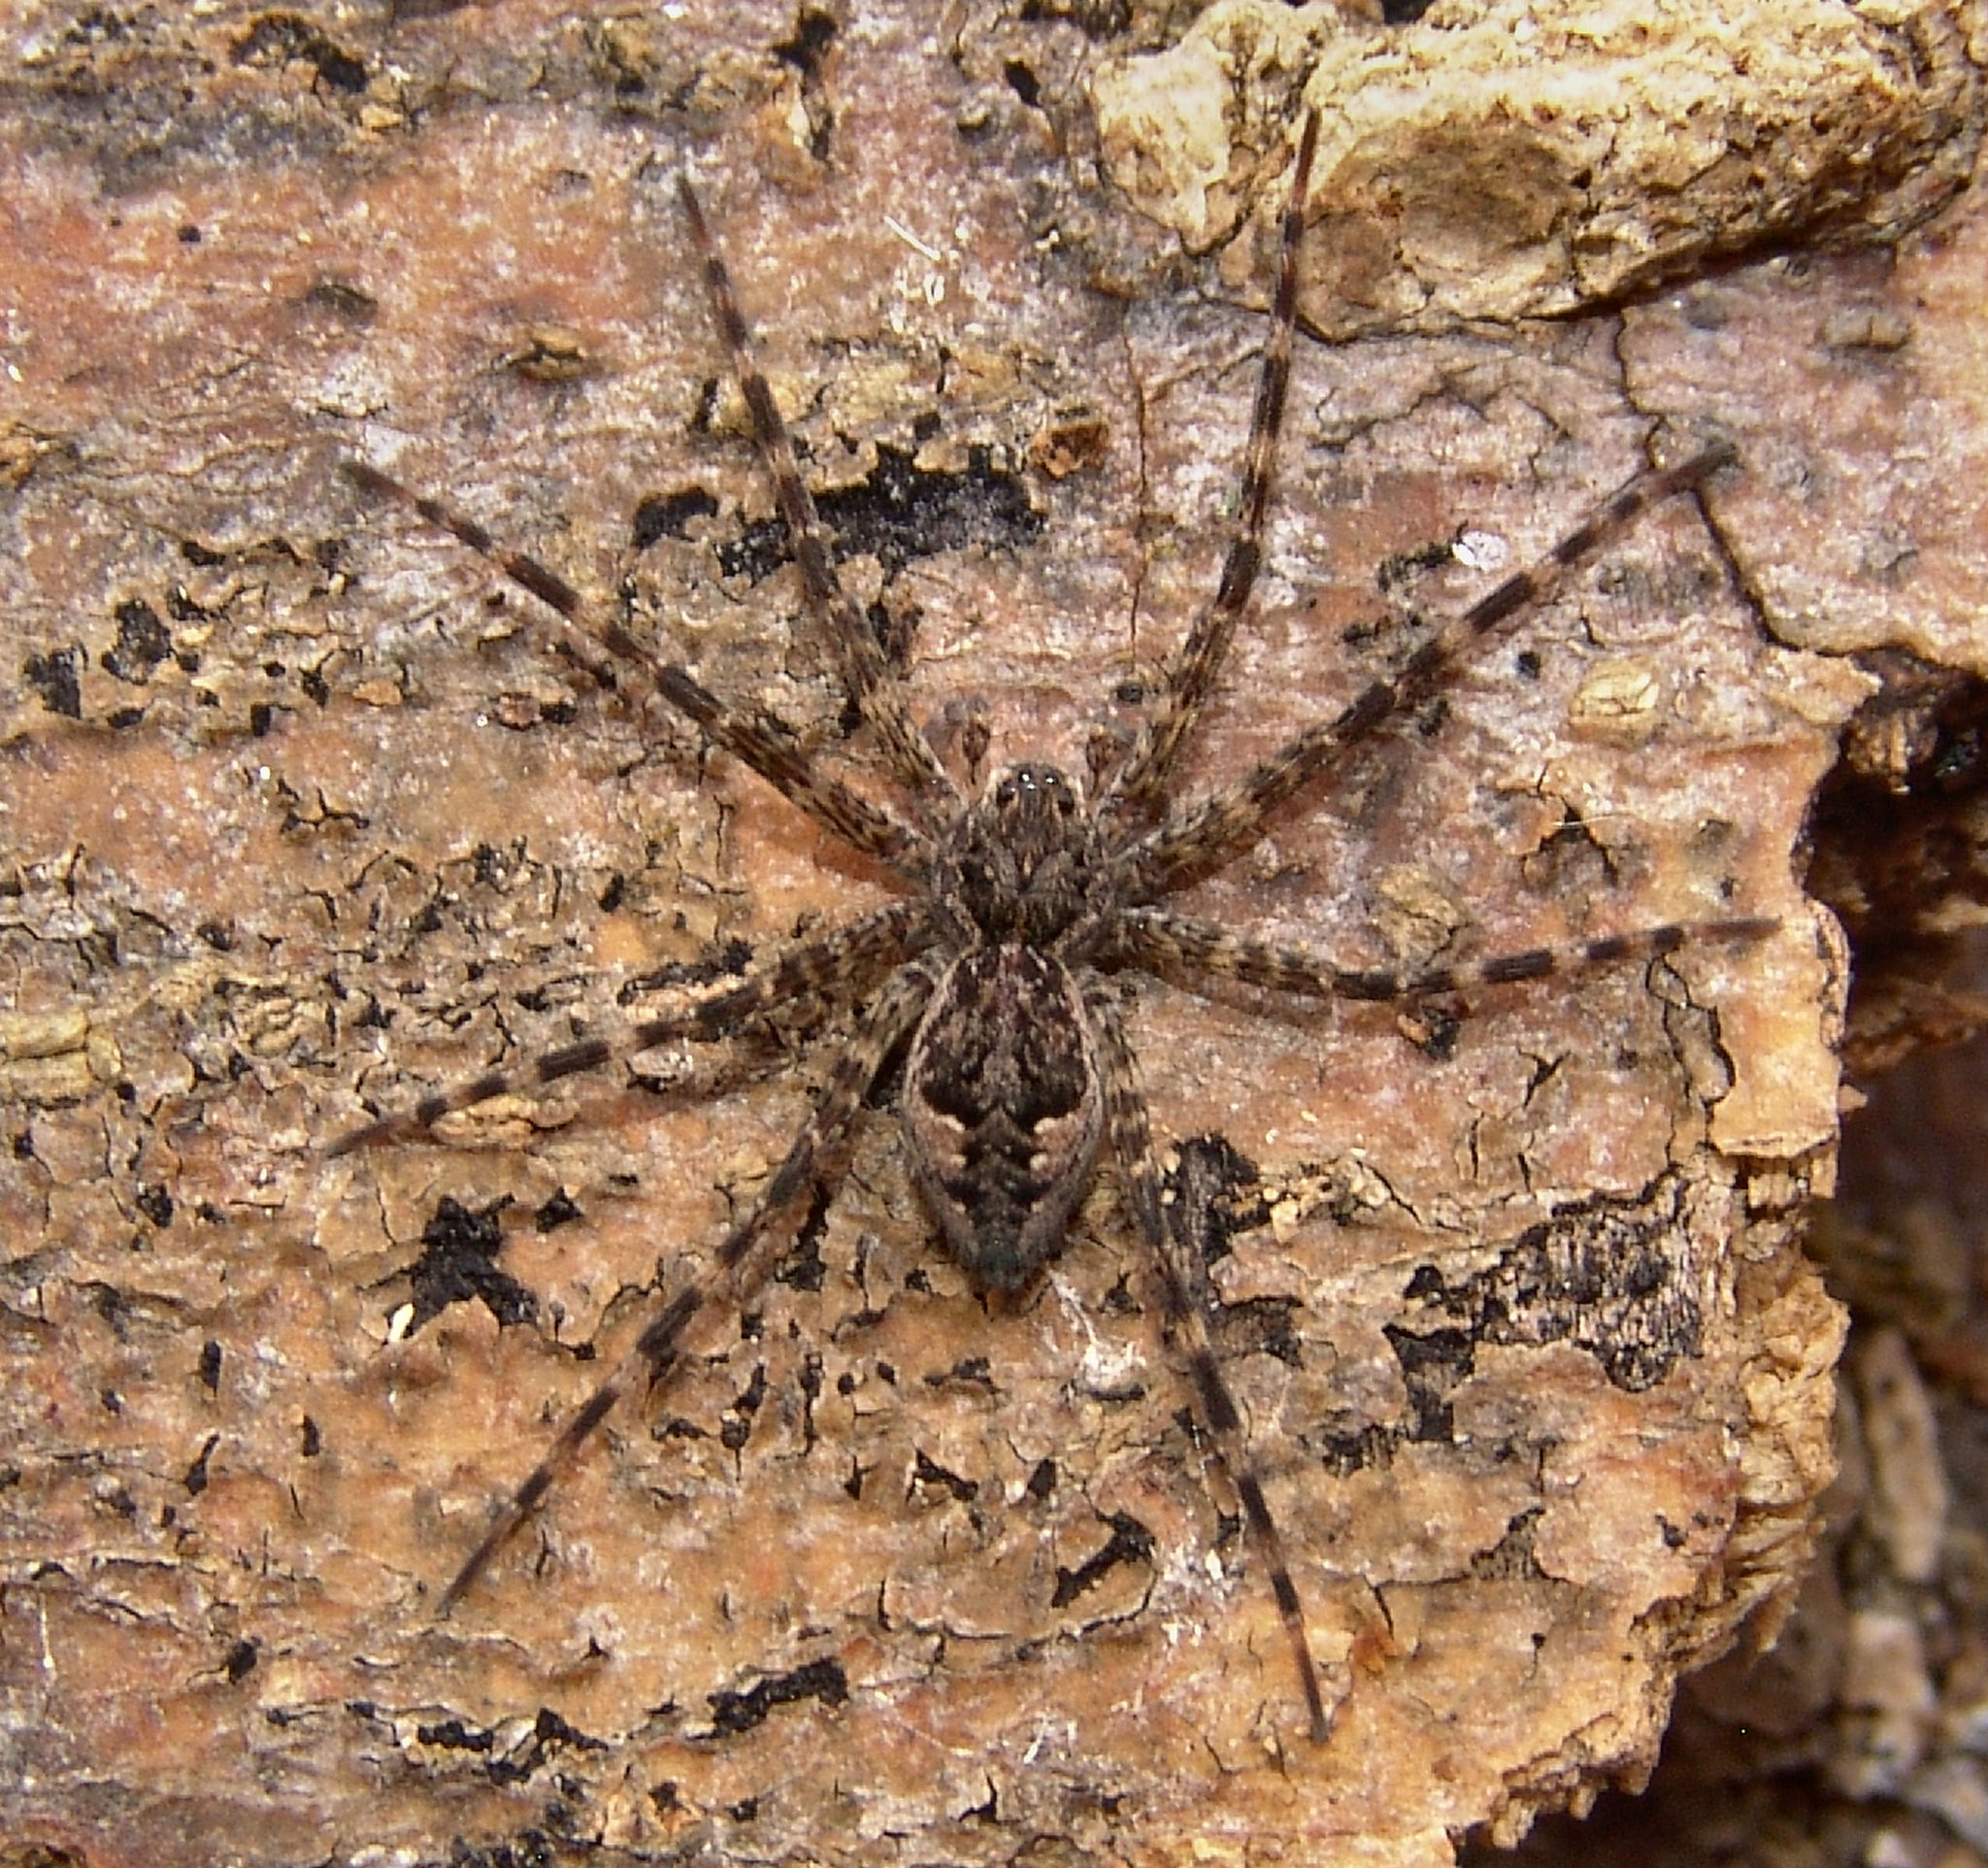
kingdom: Animalia
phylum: Arthropoda
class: Arachnida
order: Araneae
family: Pisauridae
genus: Dolomedes
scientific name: Dolomedes tenebrosus
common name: Dark fishing spider
